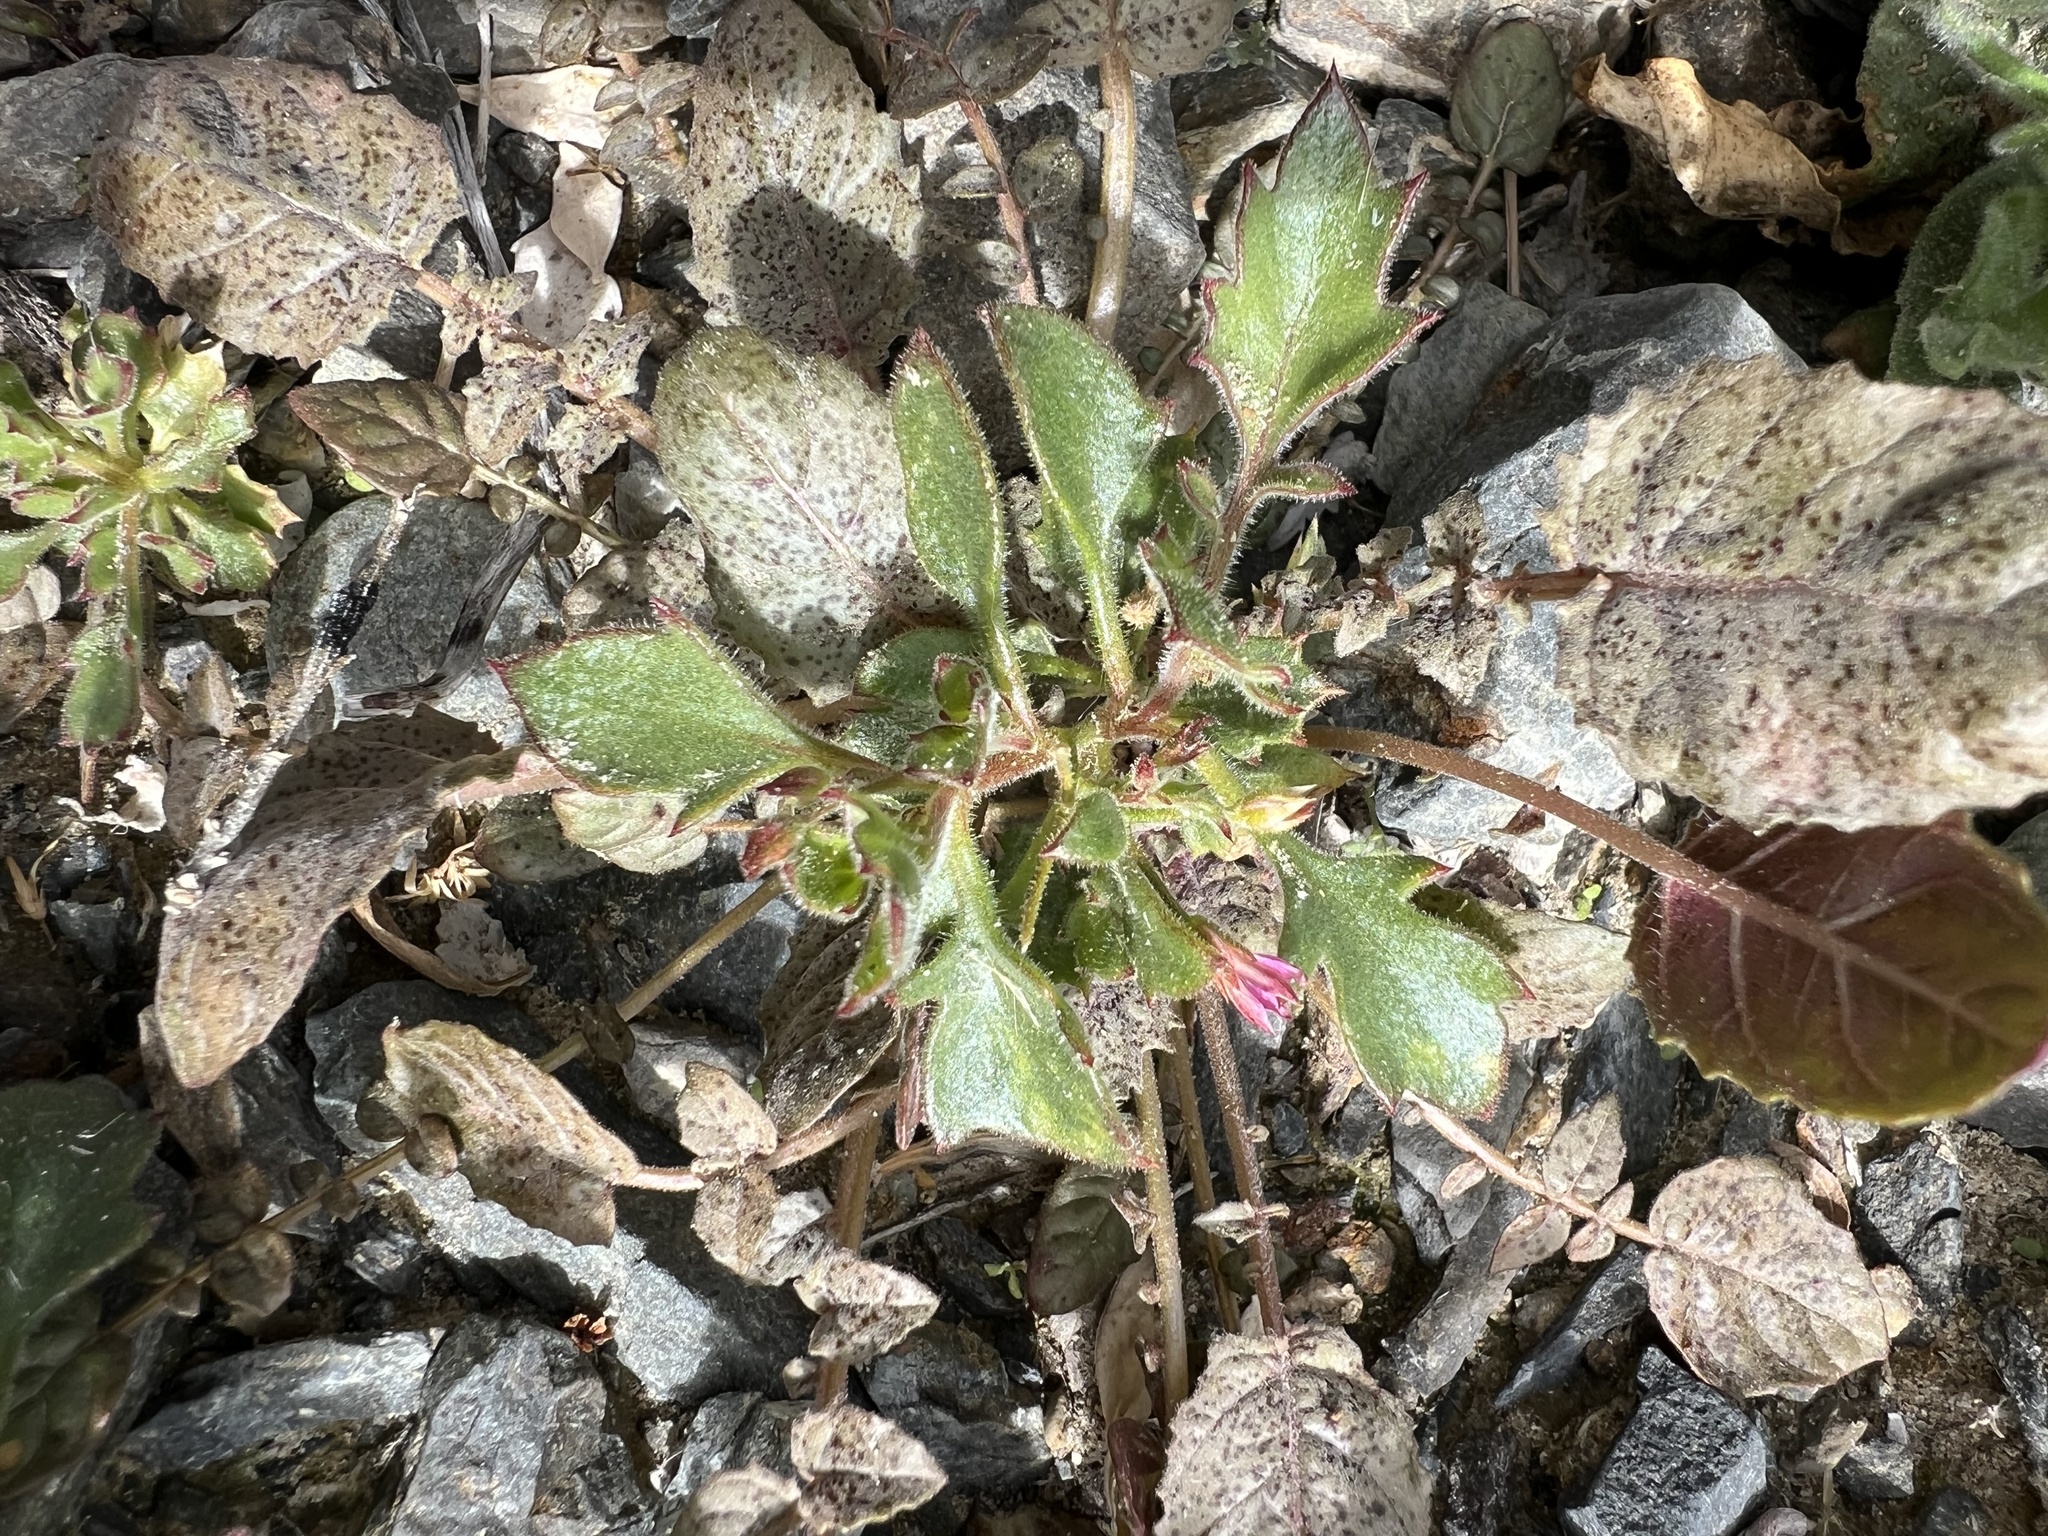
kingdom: Plantae
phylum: Tracheophyta
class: Magnoliopsida
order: Ericales
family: Polemoniaceae
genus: Aliciella
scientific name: Aliciella latifolia
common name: Broad-leaf gilia
